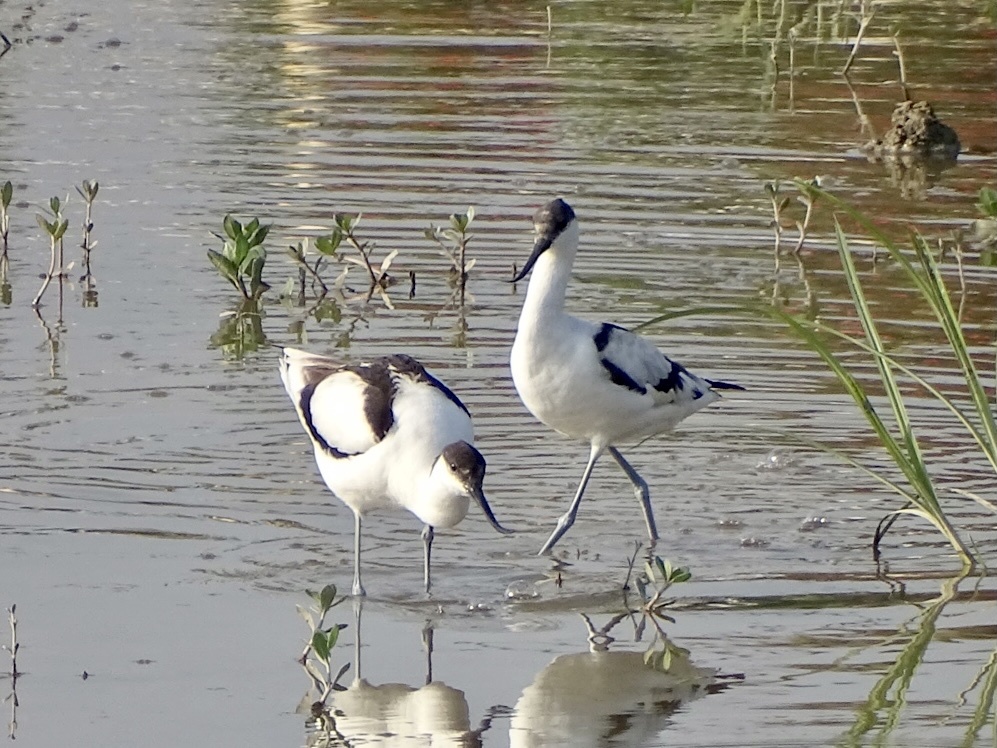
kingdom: Animalia
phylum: Chordata
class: Aves
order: Charadriiformes
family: Recurvirostridae
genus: Recurvirostra
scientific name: Recurvirostra avosetta
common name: Pied avocet
